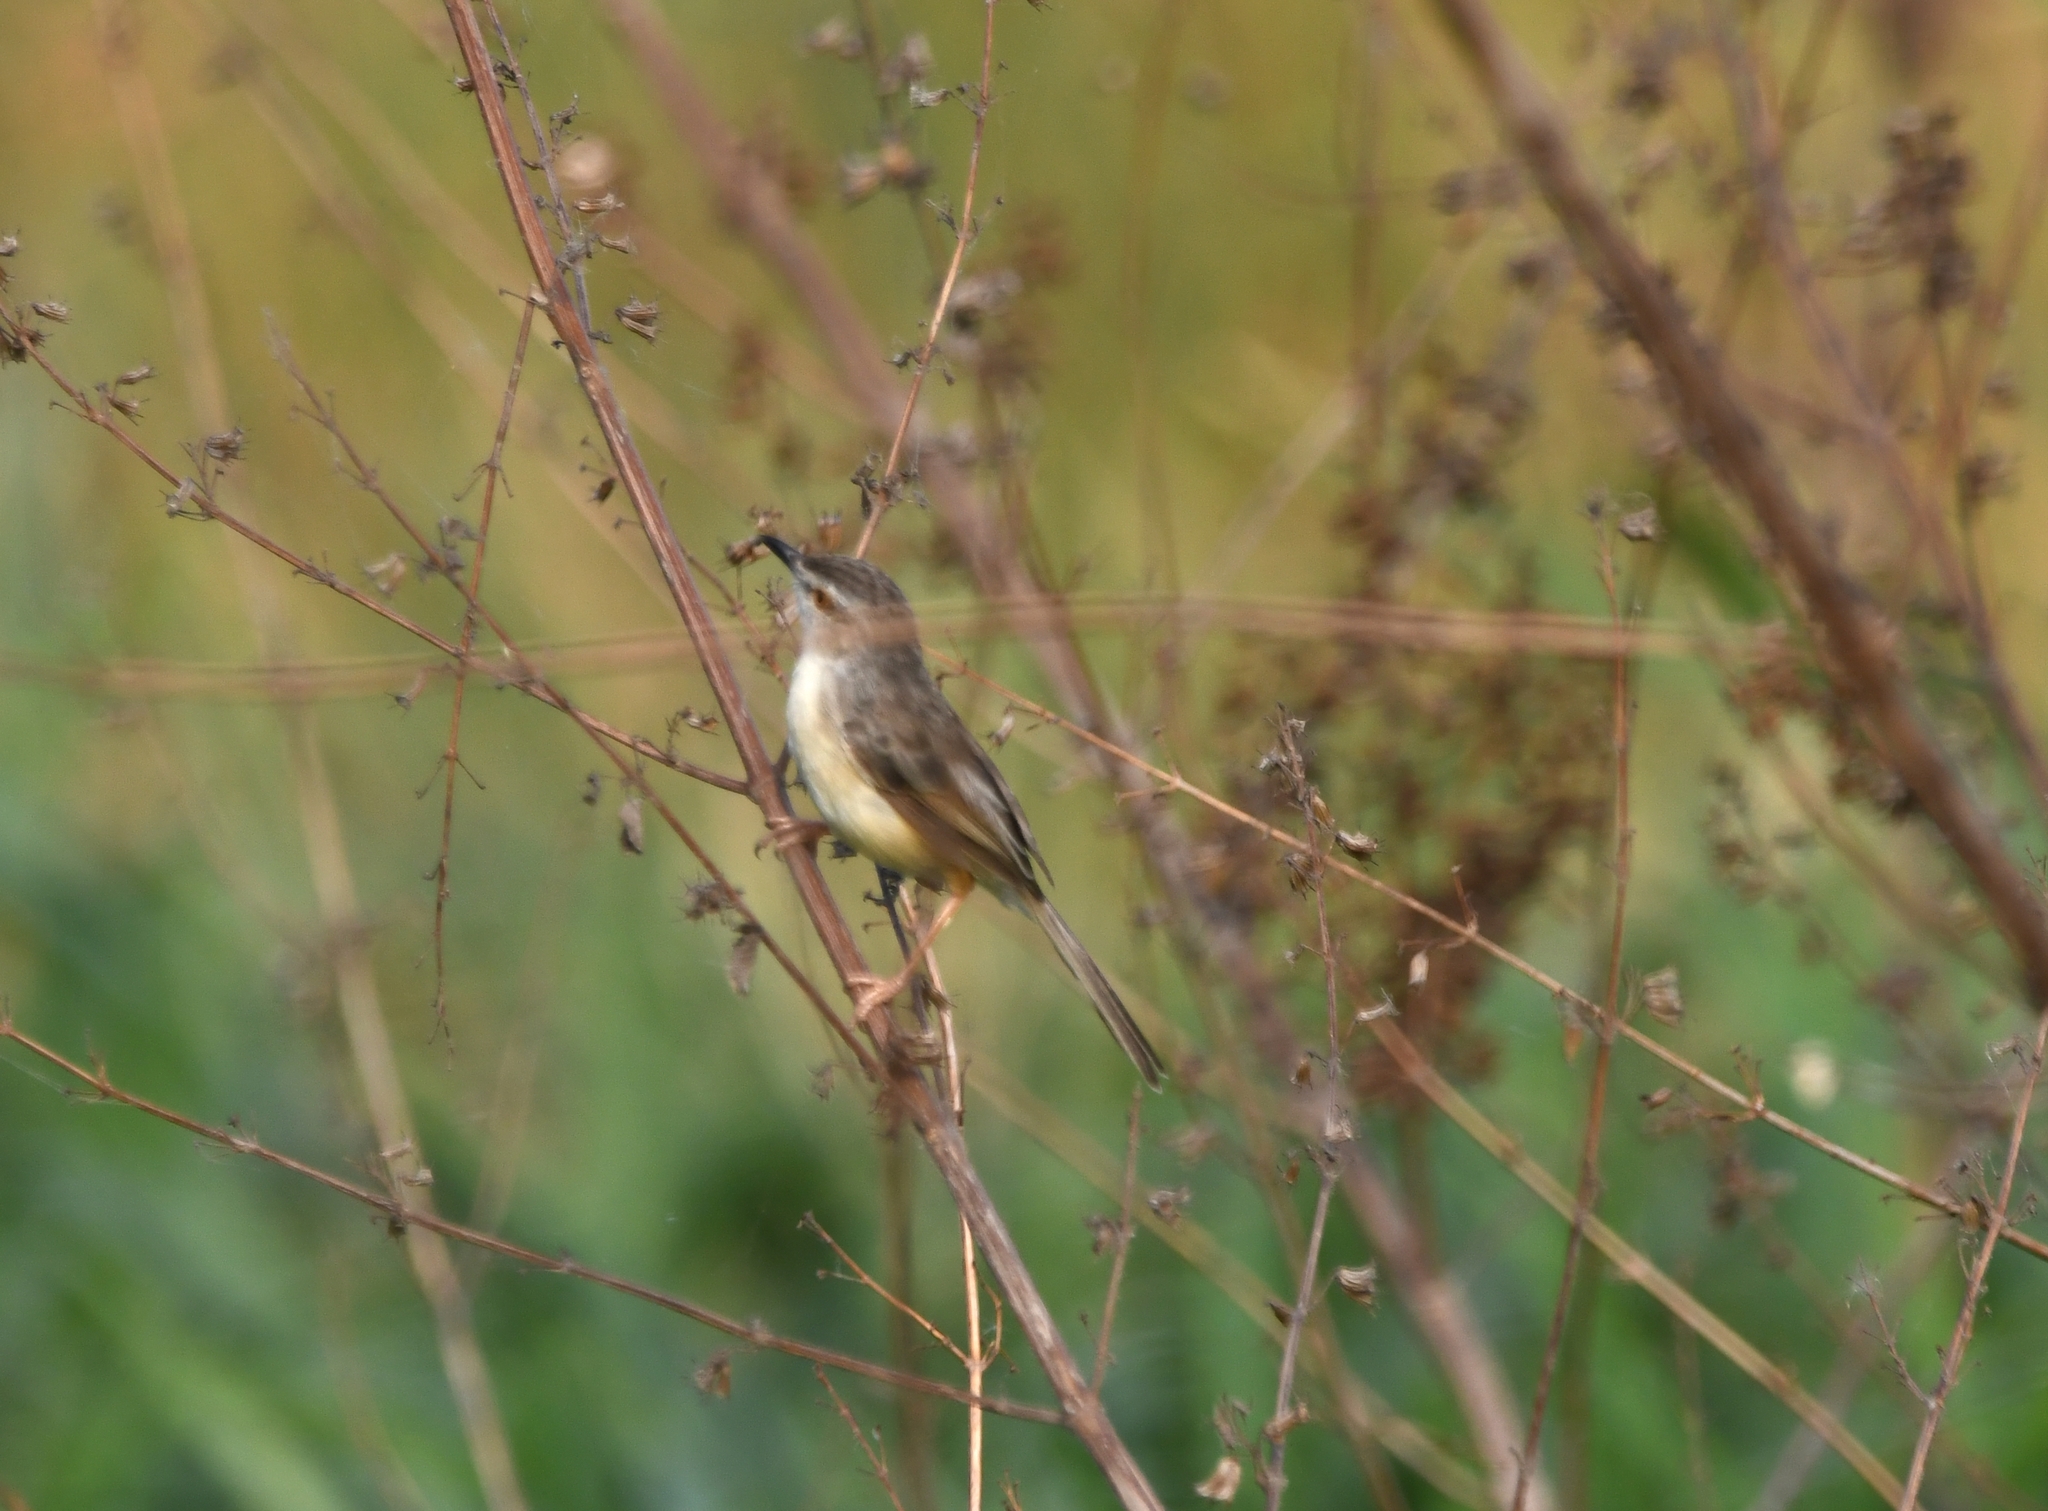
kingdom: Animalia
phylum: Chordata
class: Aves
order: Passeriformes
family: Cisticolidae
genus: Prinia
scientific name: Prinia inornata
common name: Plain prinia
